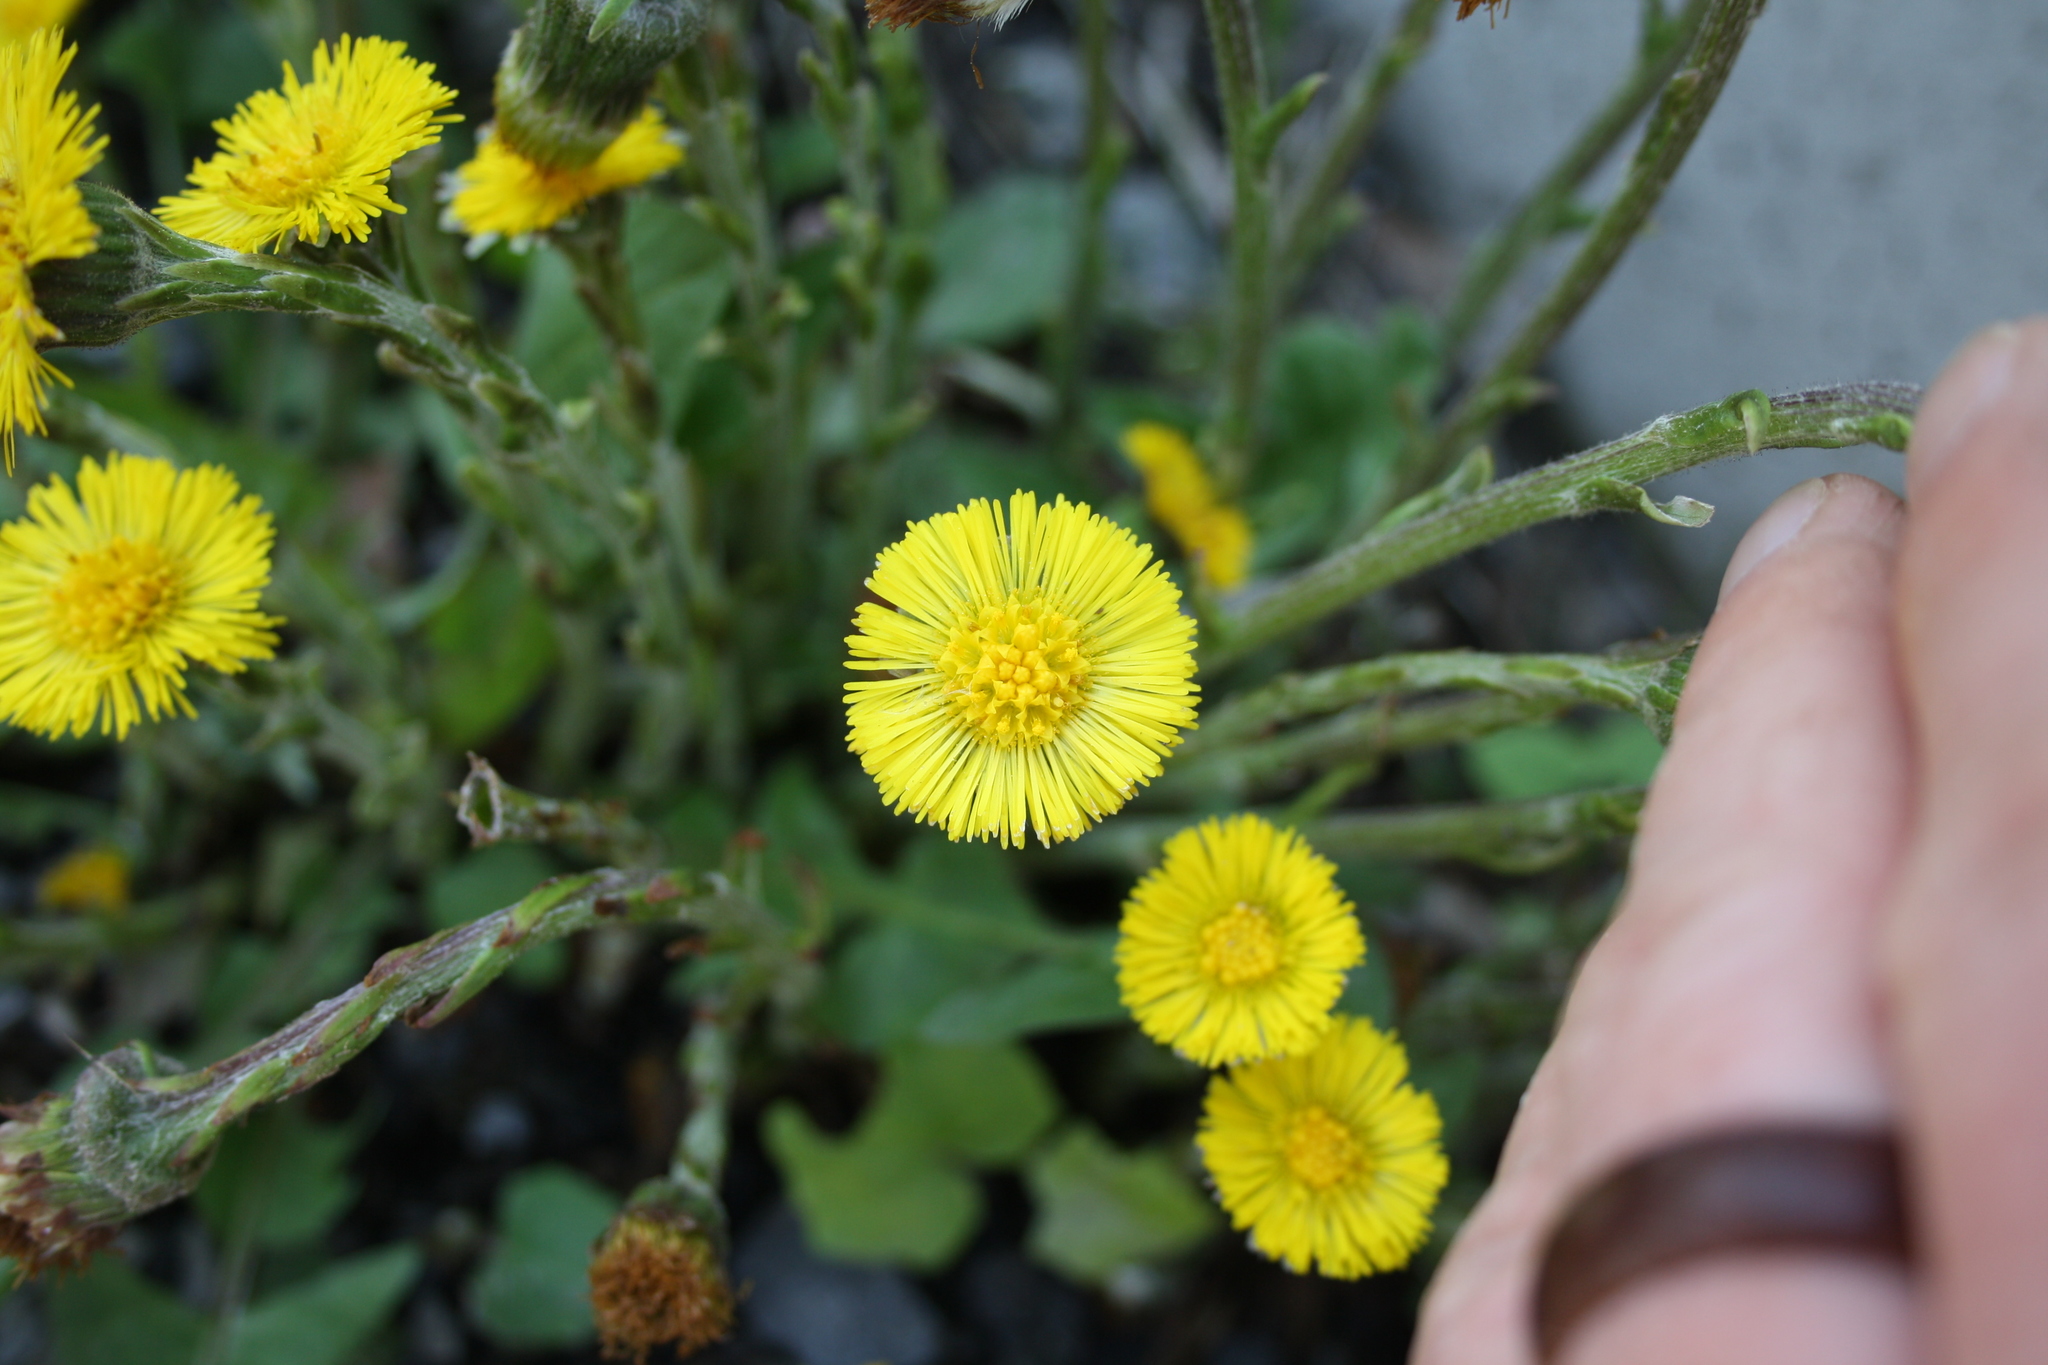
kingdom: Plantae
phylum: Tracheophyta
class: Magnoliopsida
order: Asterales
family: Asteraceae
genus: Tussilago
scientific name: Tussilago farfara
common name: Coltsfoot
